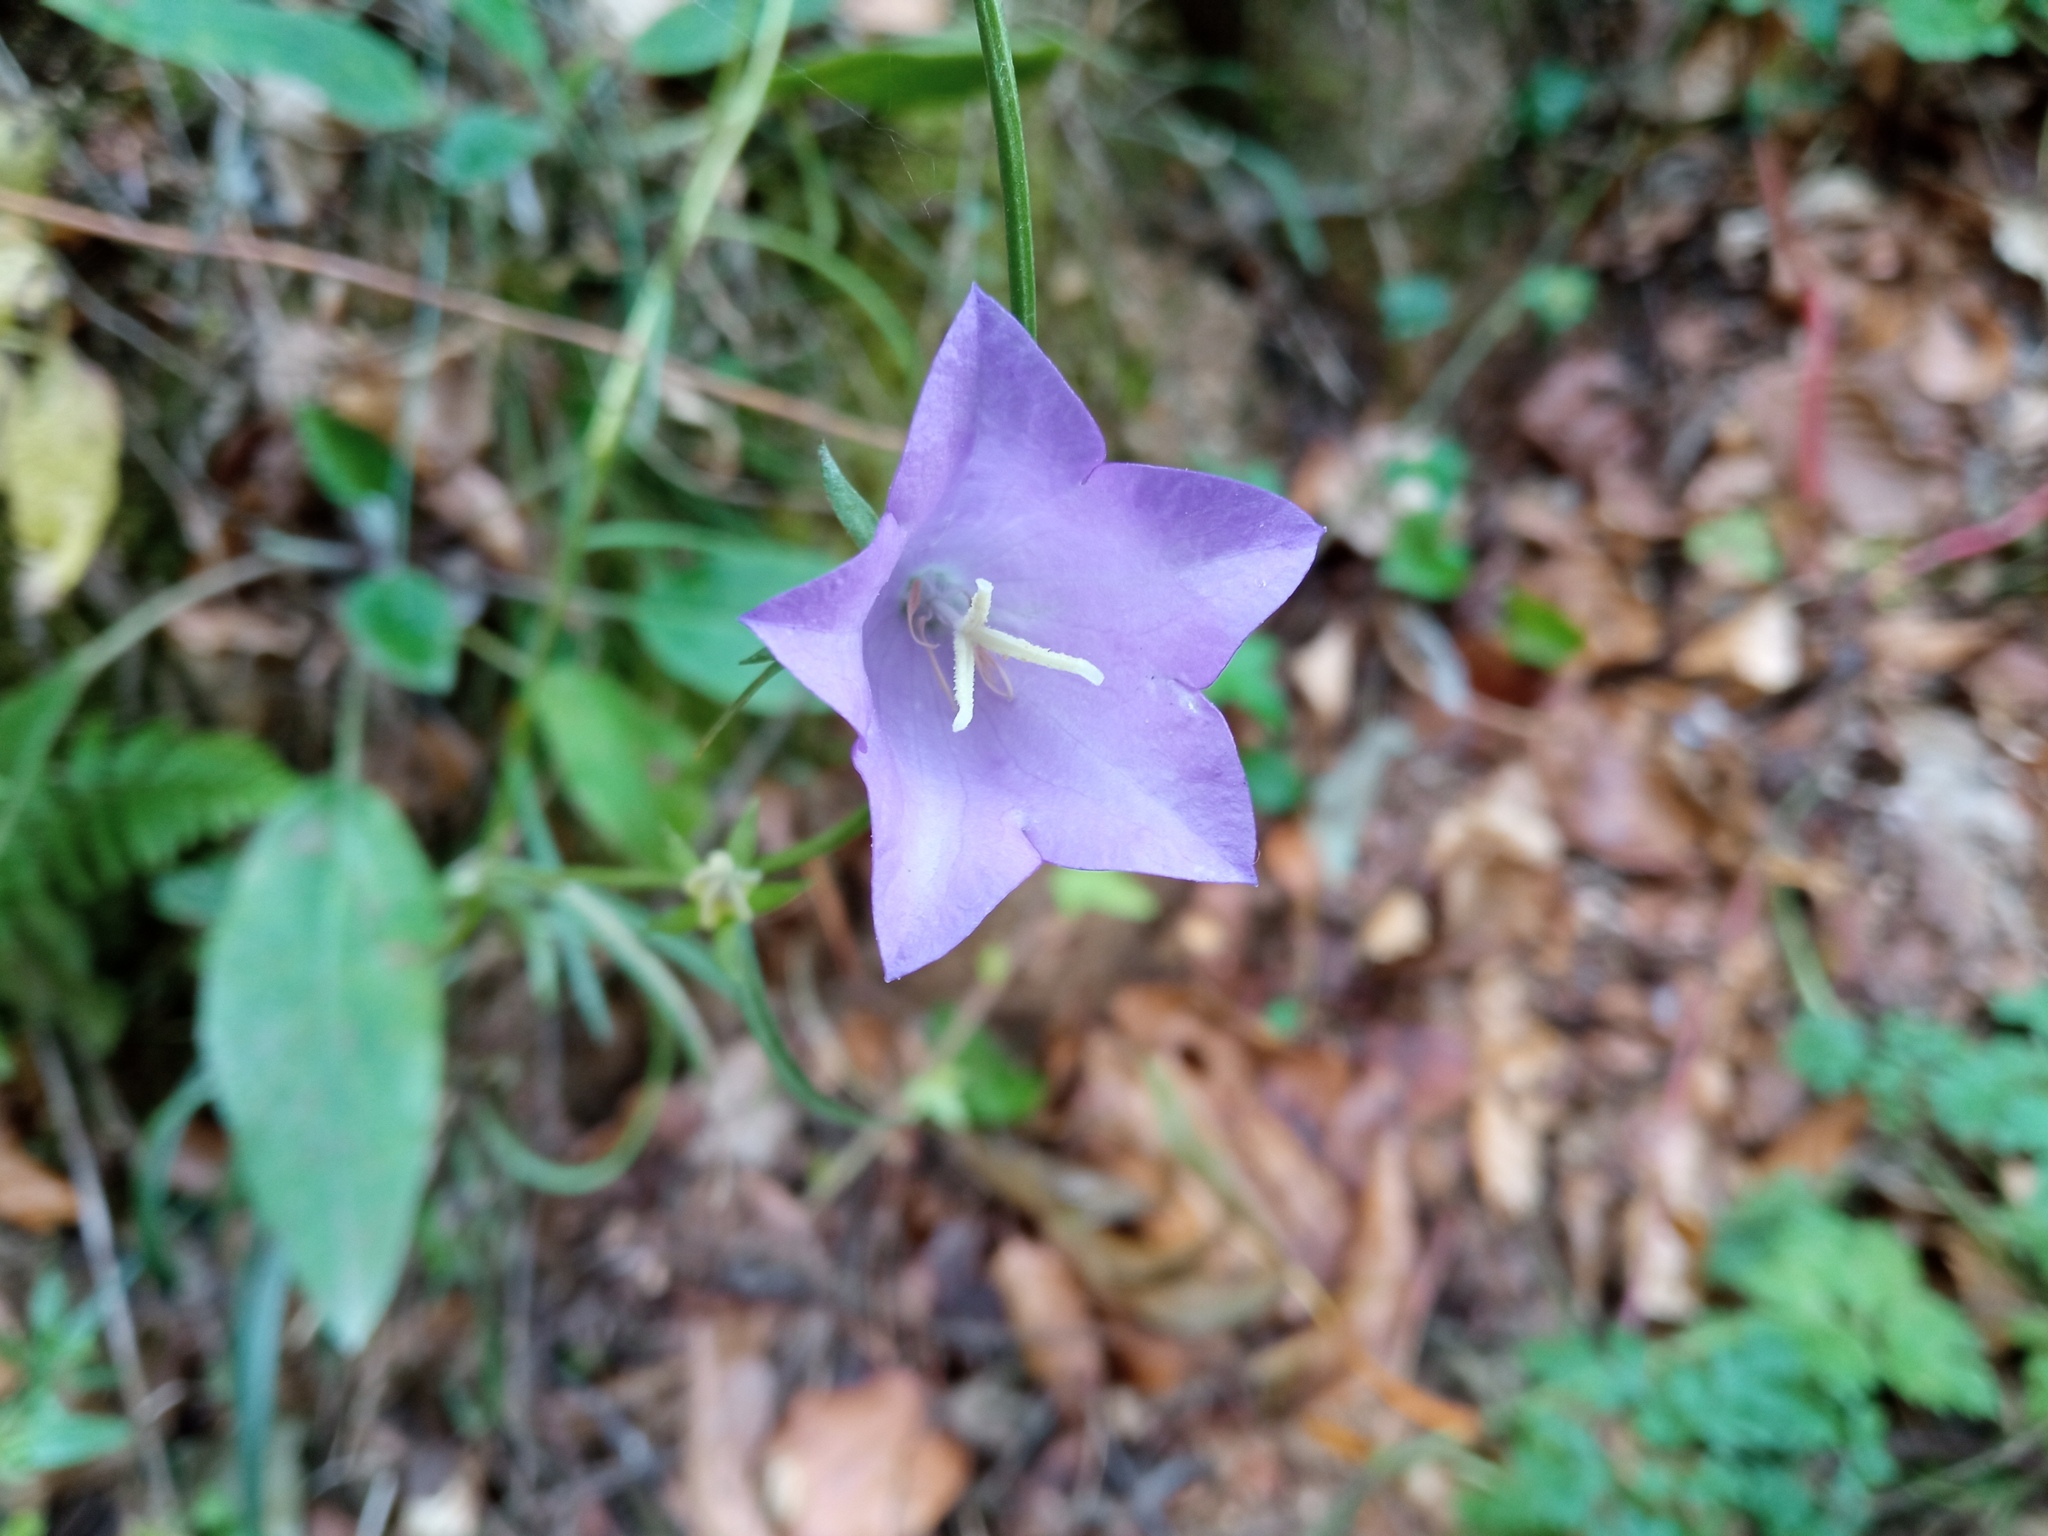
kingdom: Plantae
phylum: Tracheophyta
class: Magnoliopsida
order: Asterales
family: Campanulaceae
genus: Campanula
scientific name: Campanula persicifolia
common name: Peach-leaved bellflower
